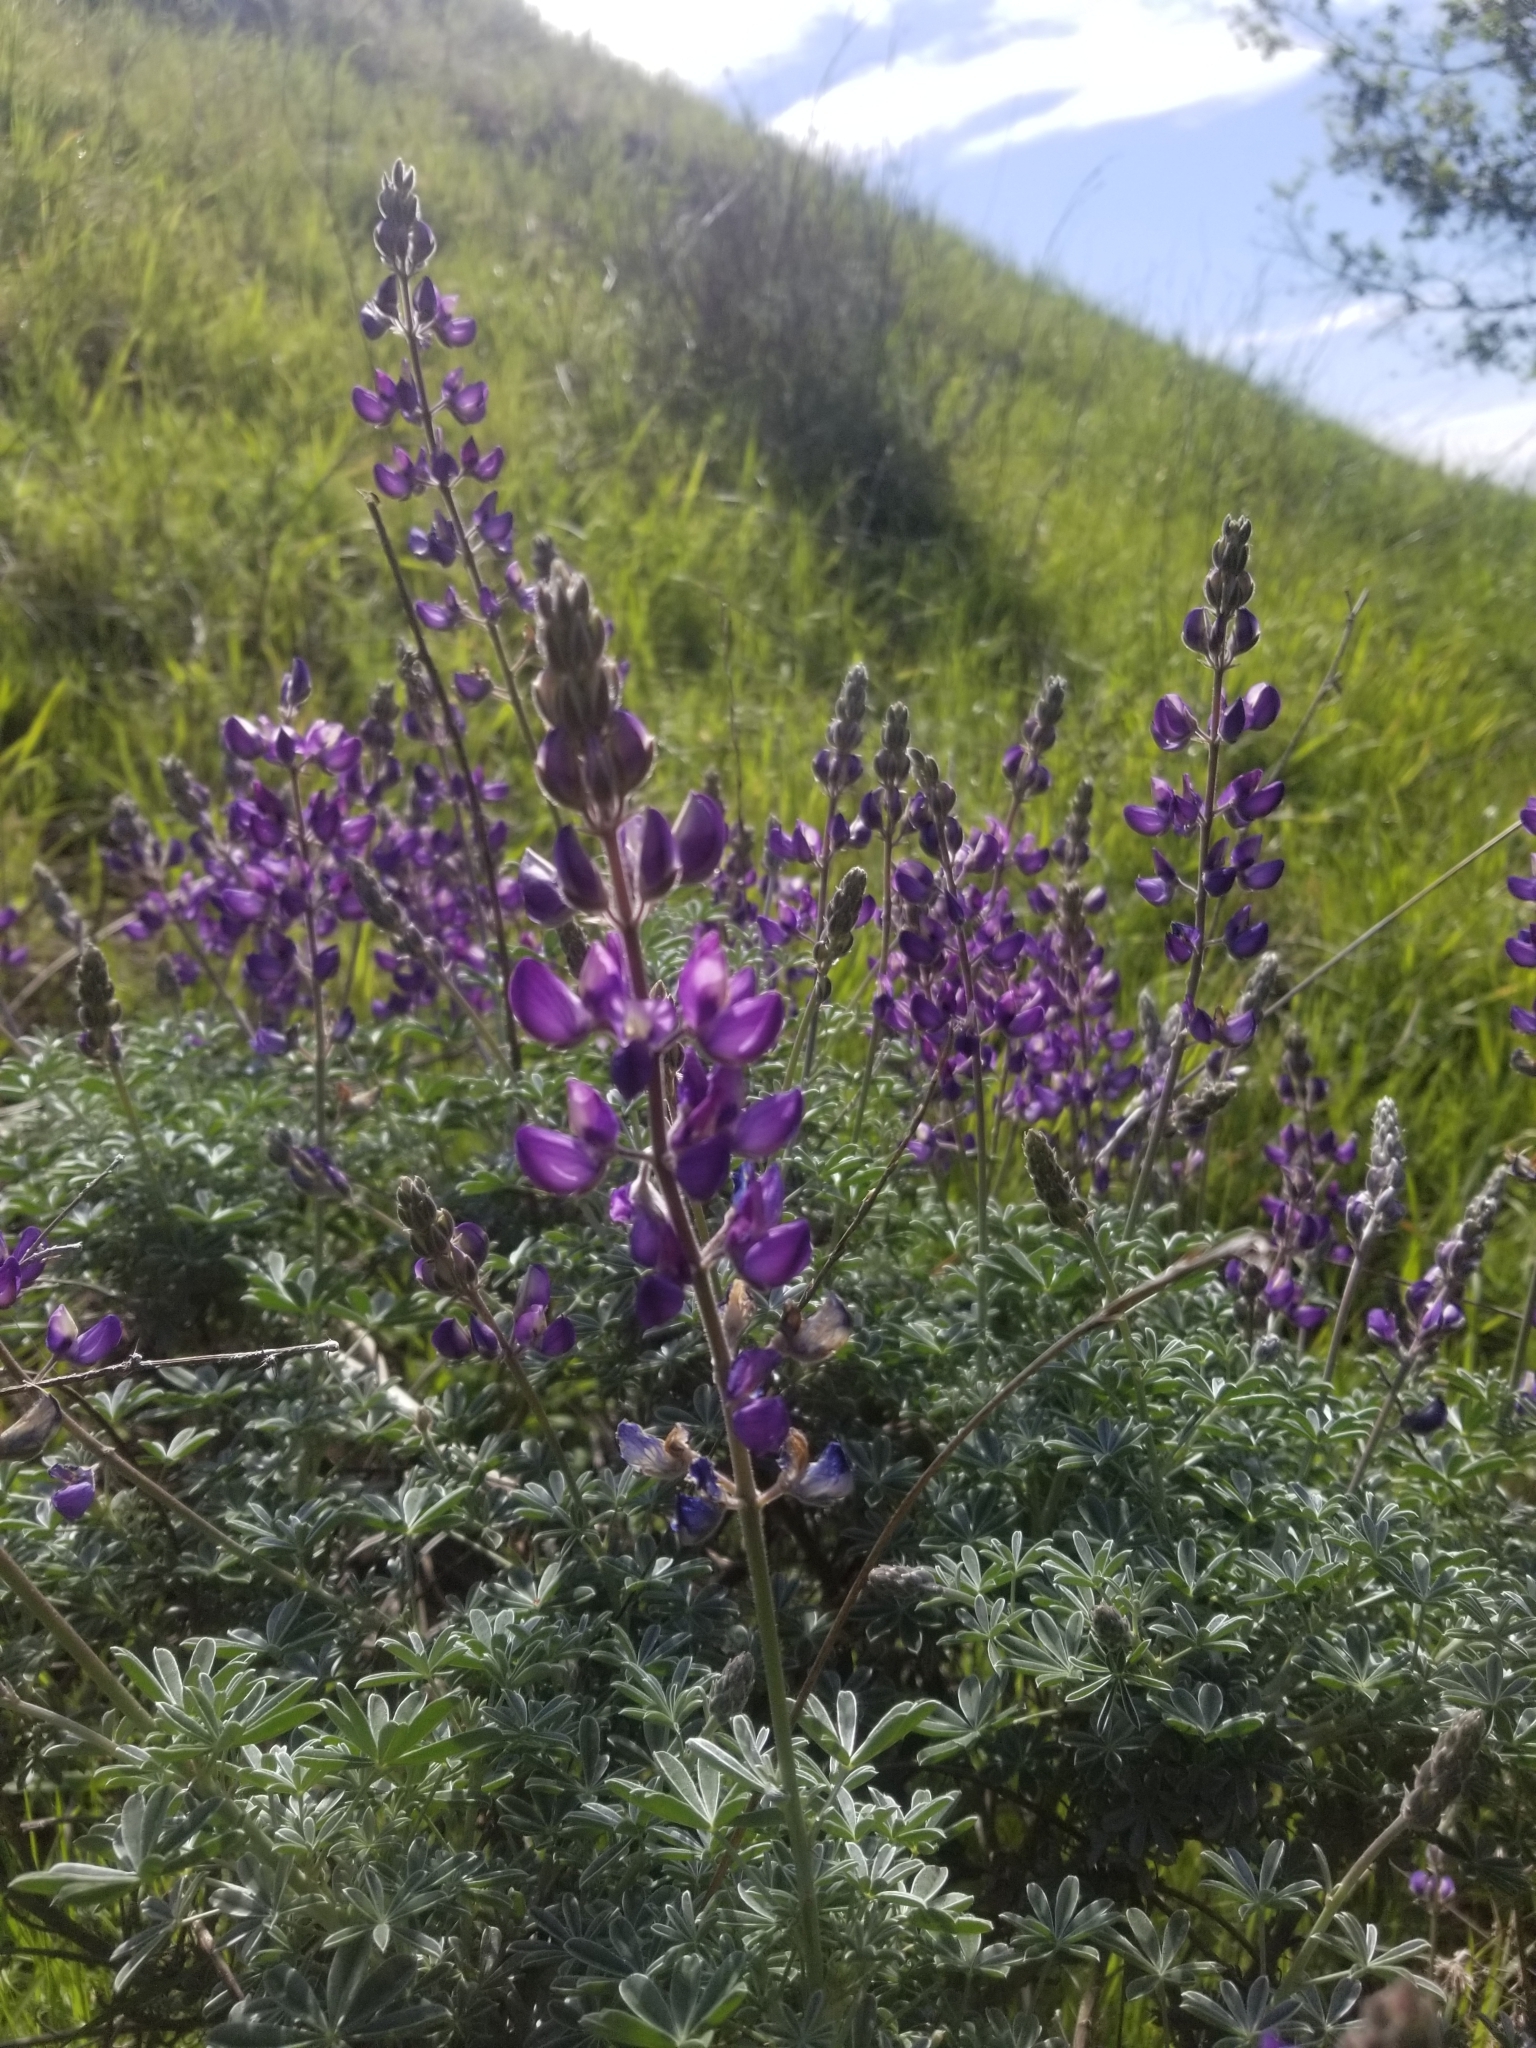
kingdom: Plantae
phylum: Tracheophyta
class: Magnoliopsida
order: Fabales
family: Fabaceae
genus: Lupinus
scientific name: Lupinus albifrons
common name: Foothill lupine
